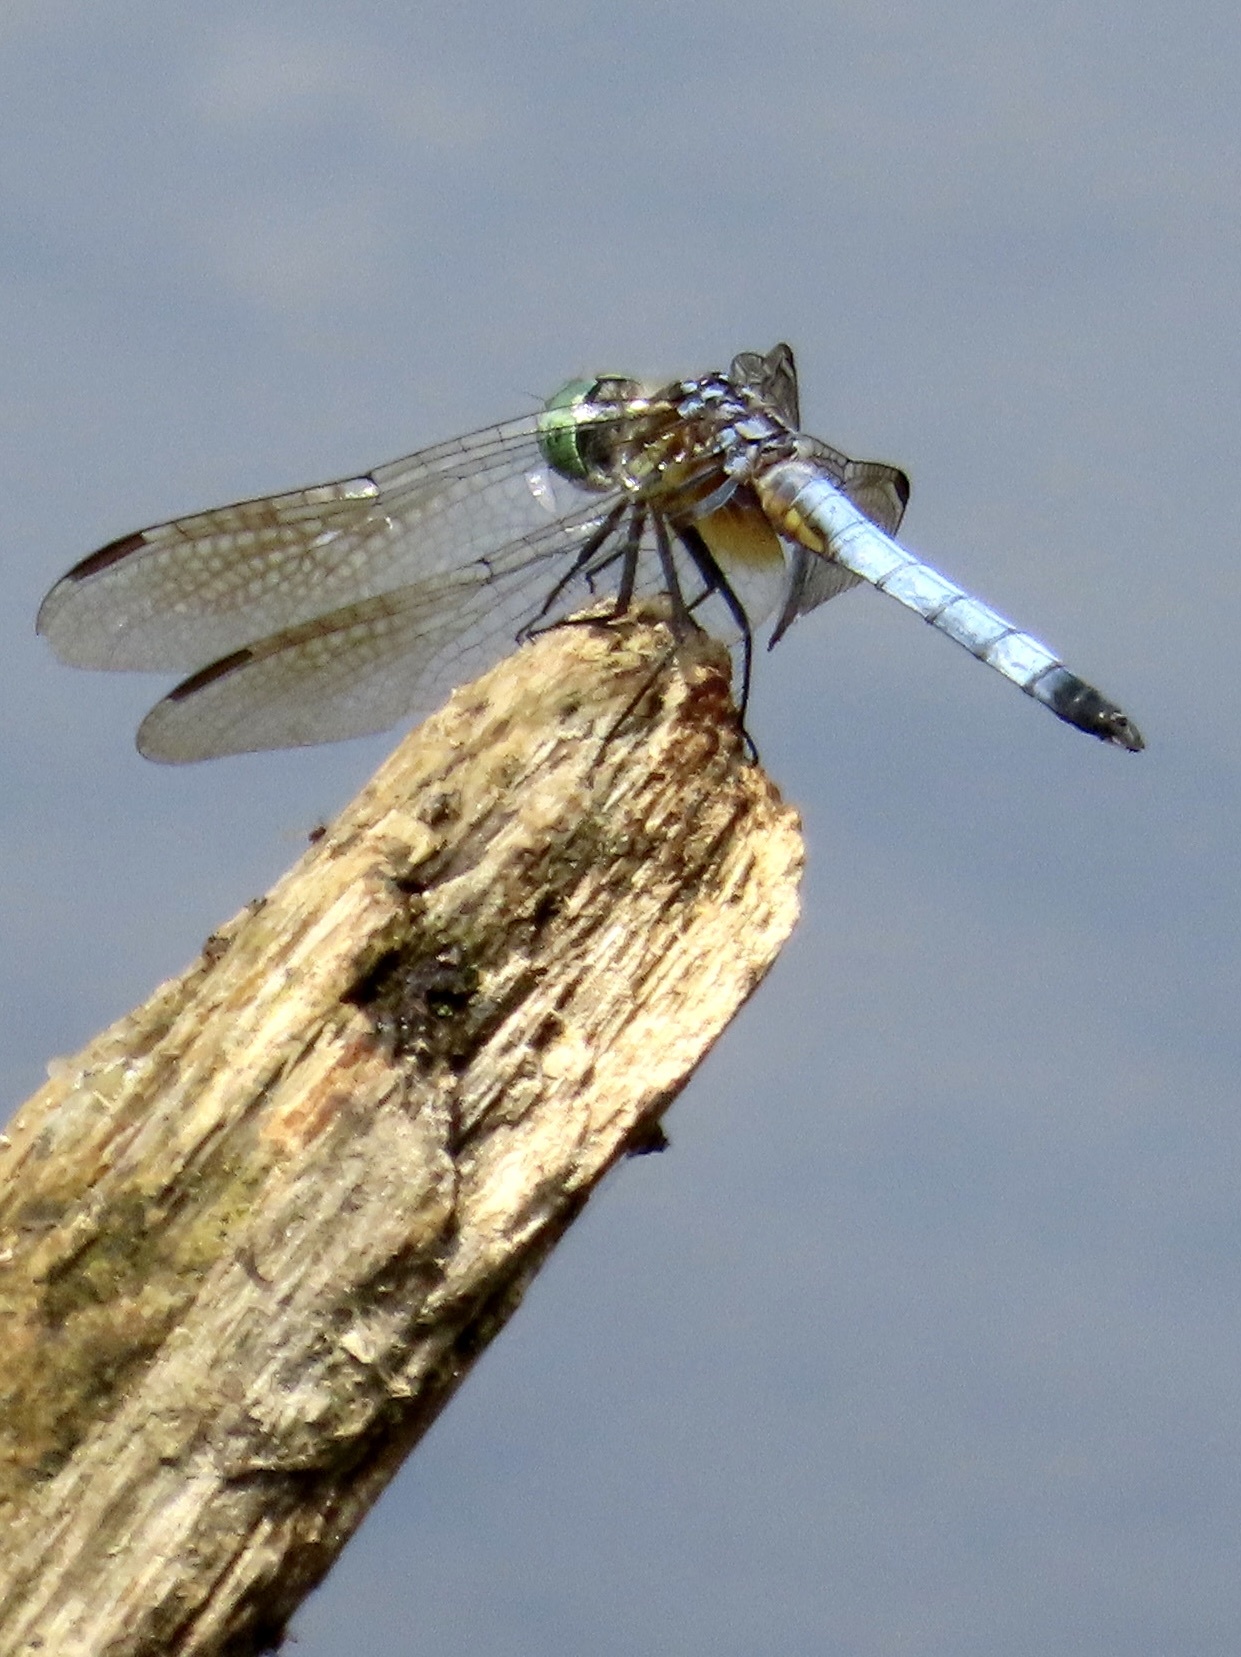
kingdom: Animalia
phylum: Arthropoda
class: Insecta
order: Odonata
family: Libellulidae
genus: Pachydiplax
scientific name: Pachydiplax longipennis
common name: Blue dasher
